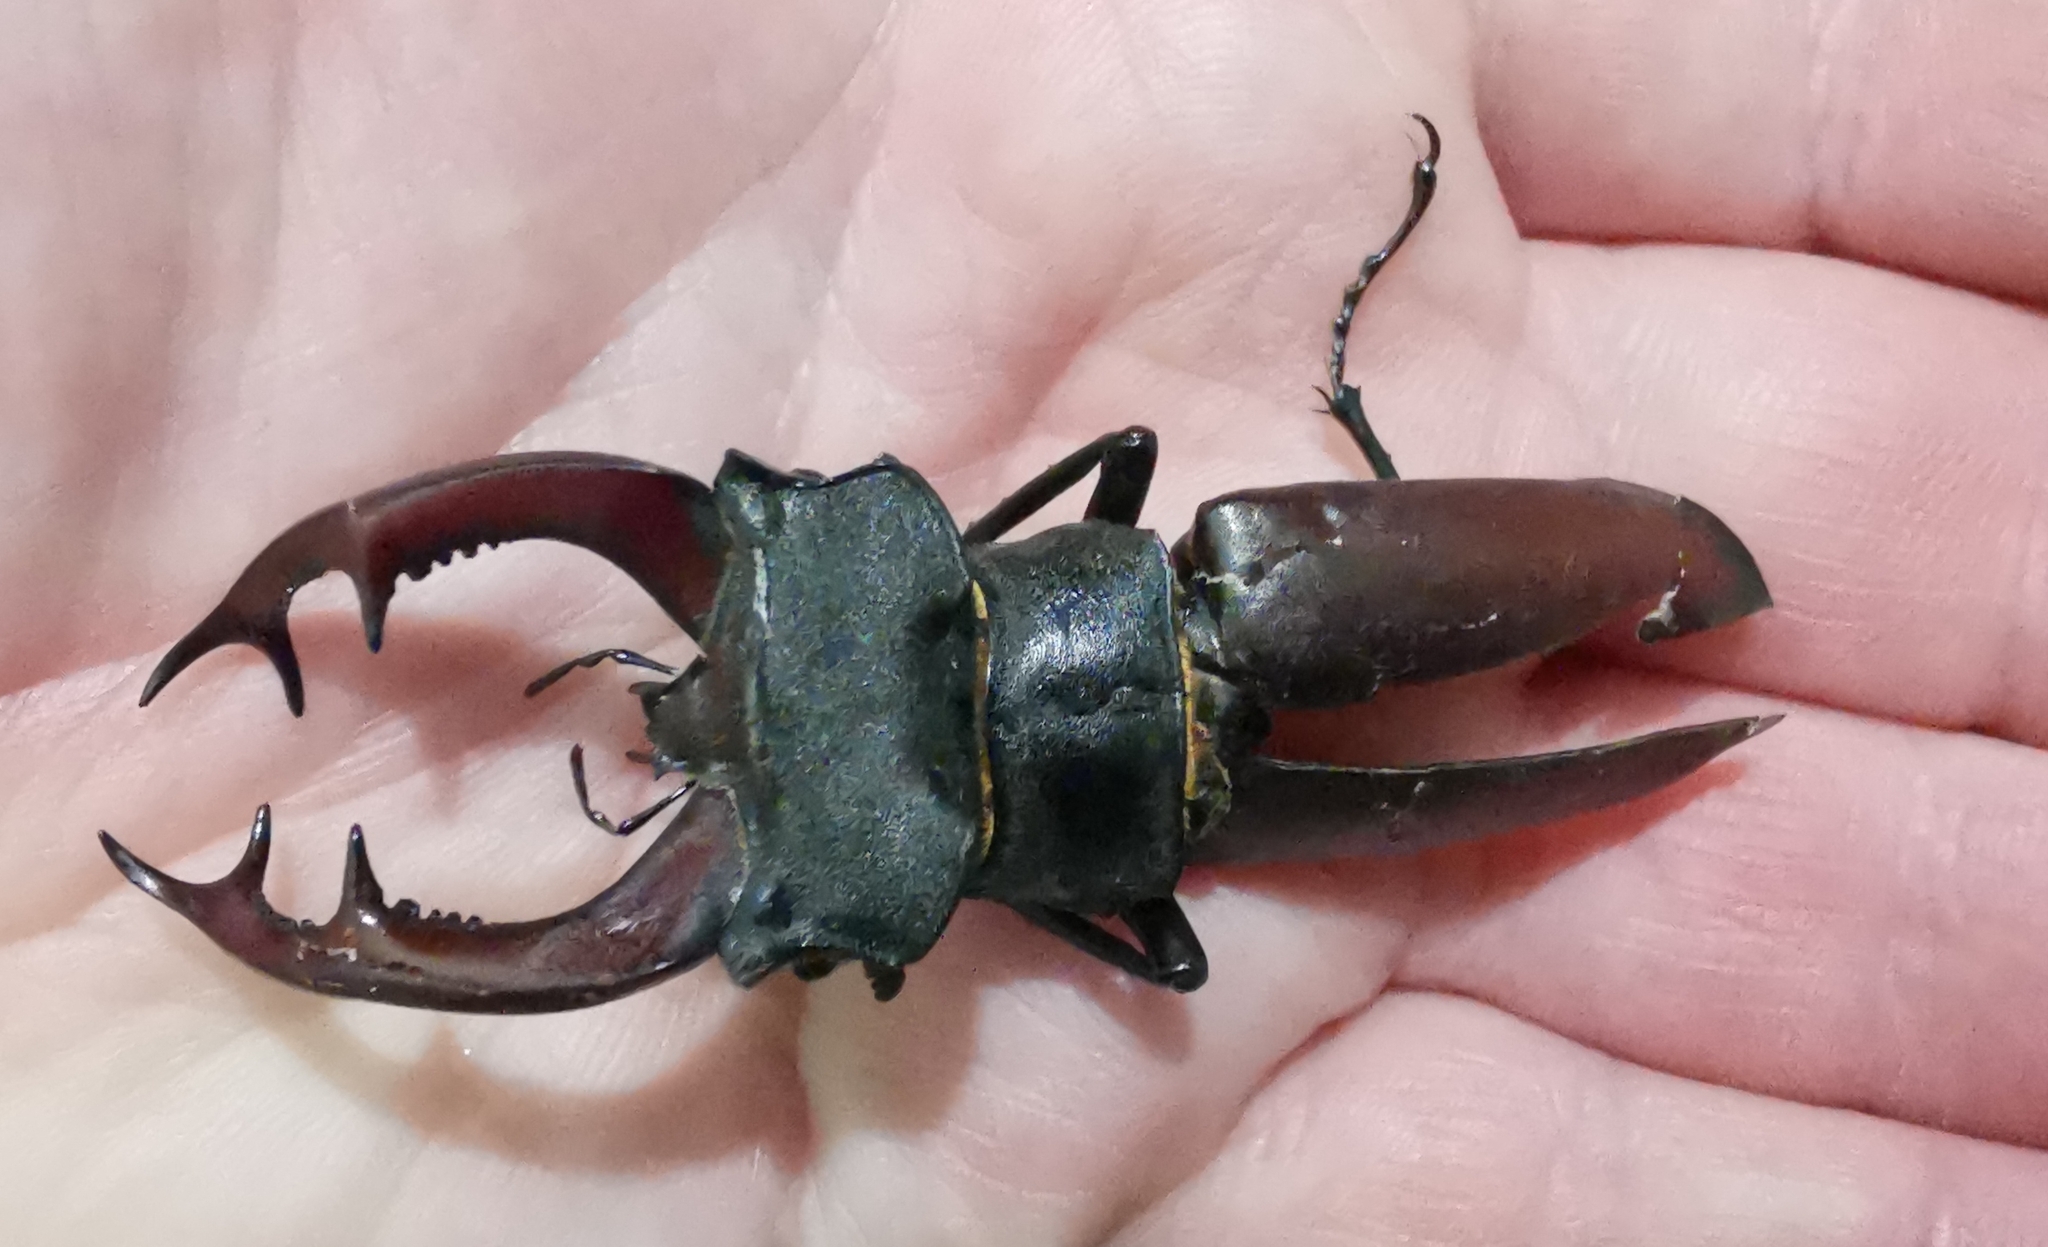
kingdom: Animalia
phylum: Arthropoda
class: Insecta
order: Coleoptera
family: Lucanidae
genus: Lucanus
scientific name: Lucanus cervus
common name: Stag beetle
